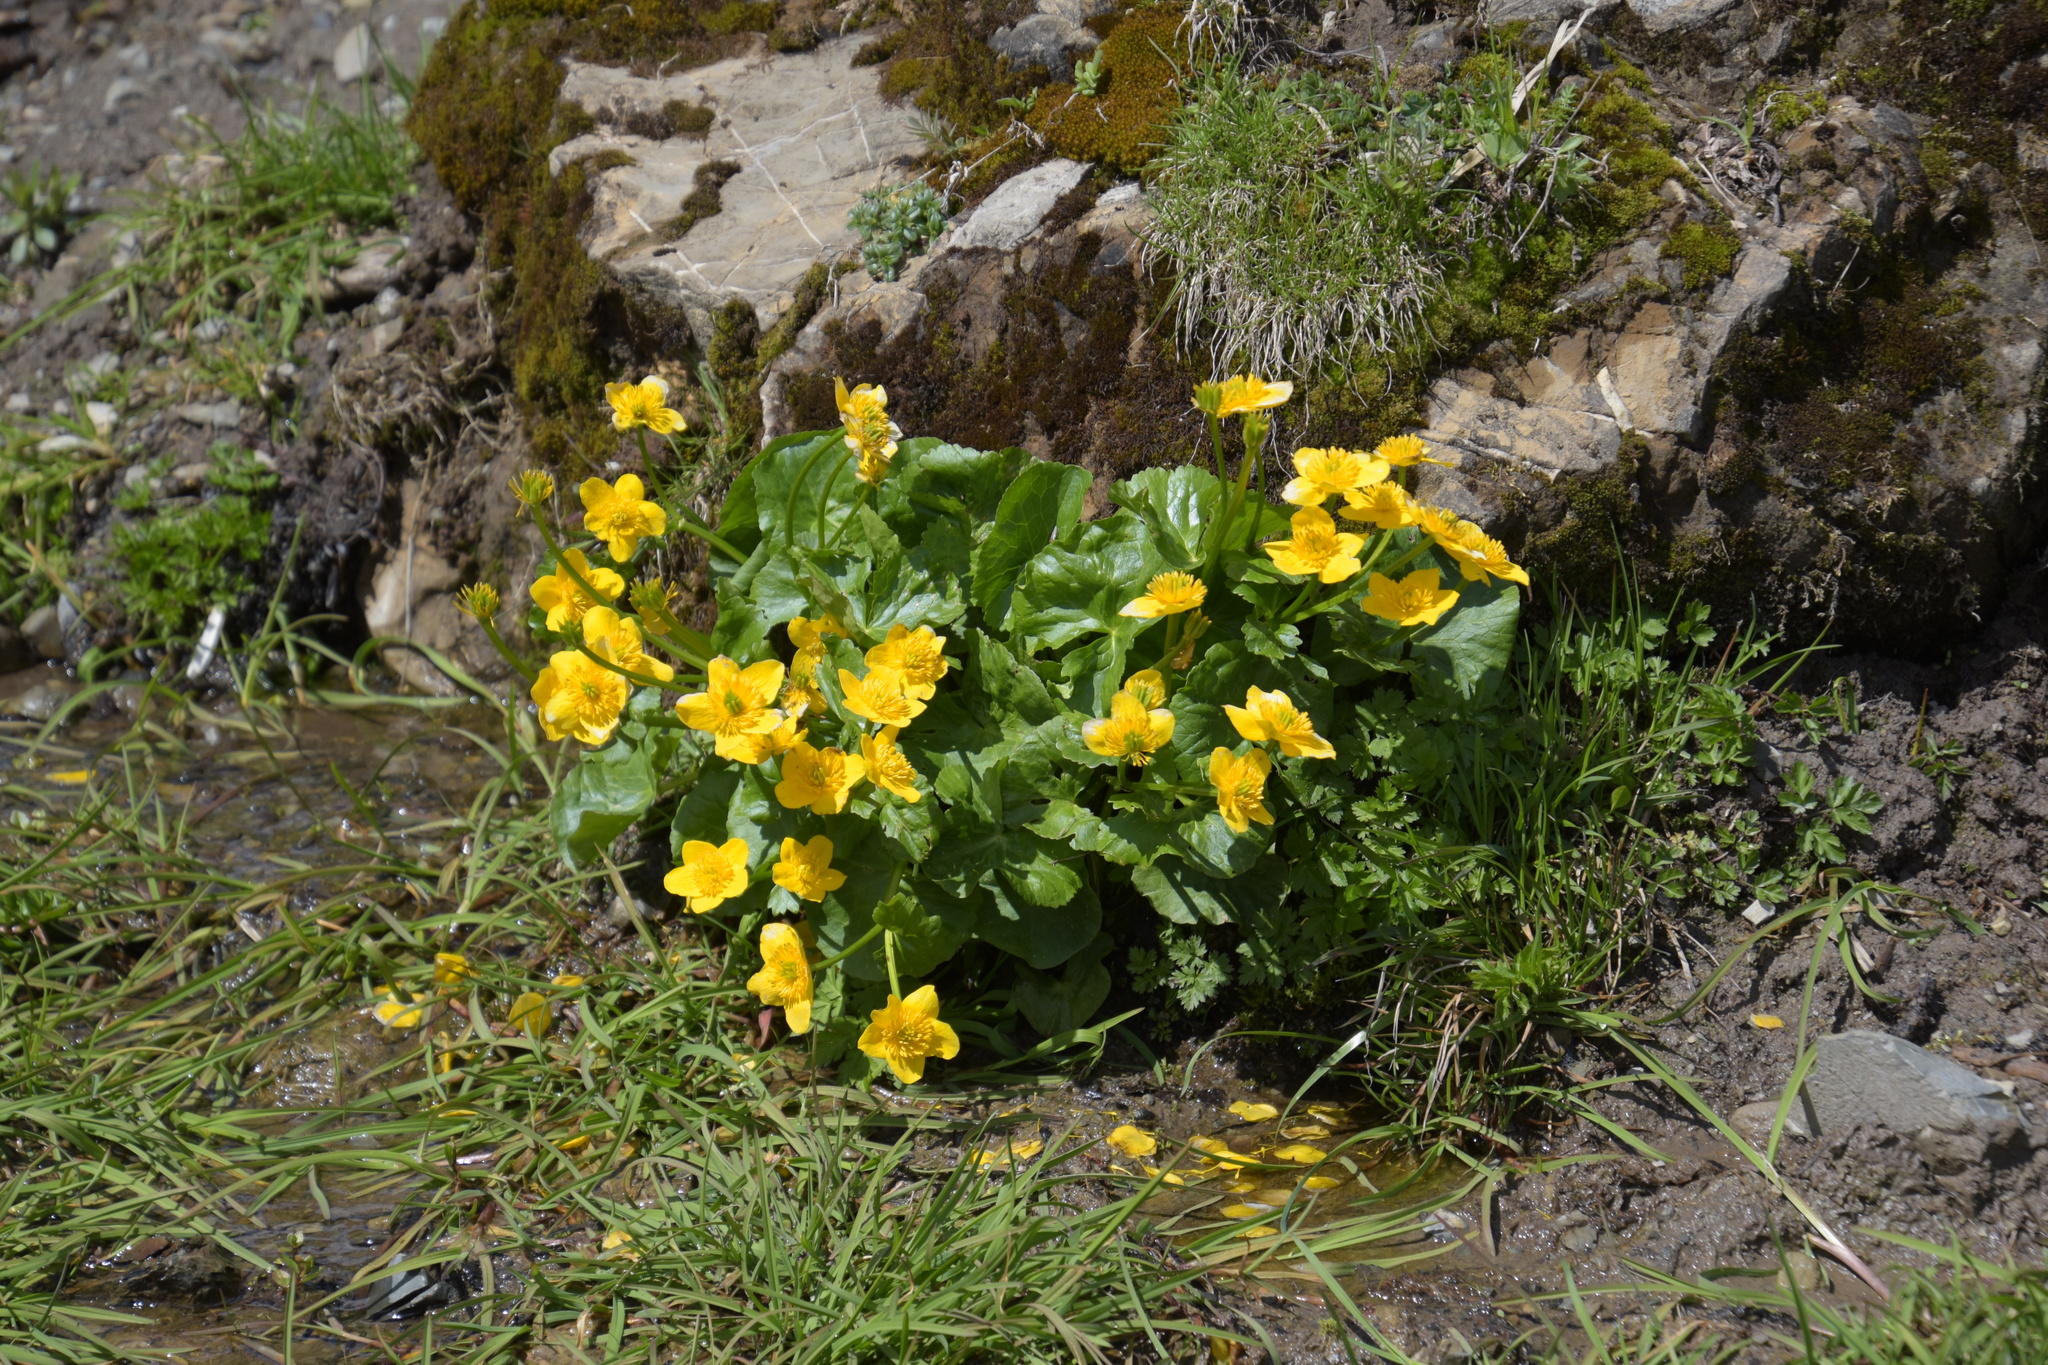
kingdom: Plantae
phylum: Tracheophyta
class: Magnoliopsida
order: Ranunculales
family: Ranunculaceae
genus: Caltha
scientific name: Caltha palustris
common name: Marsh marigold
